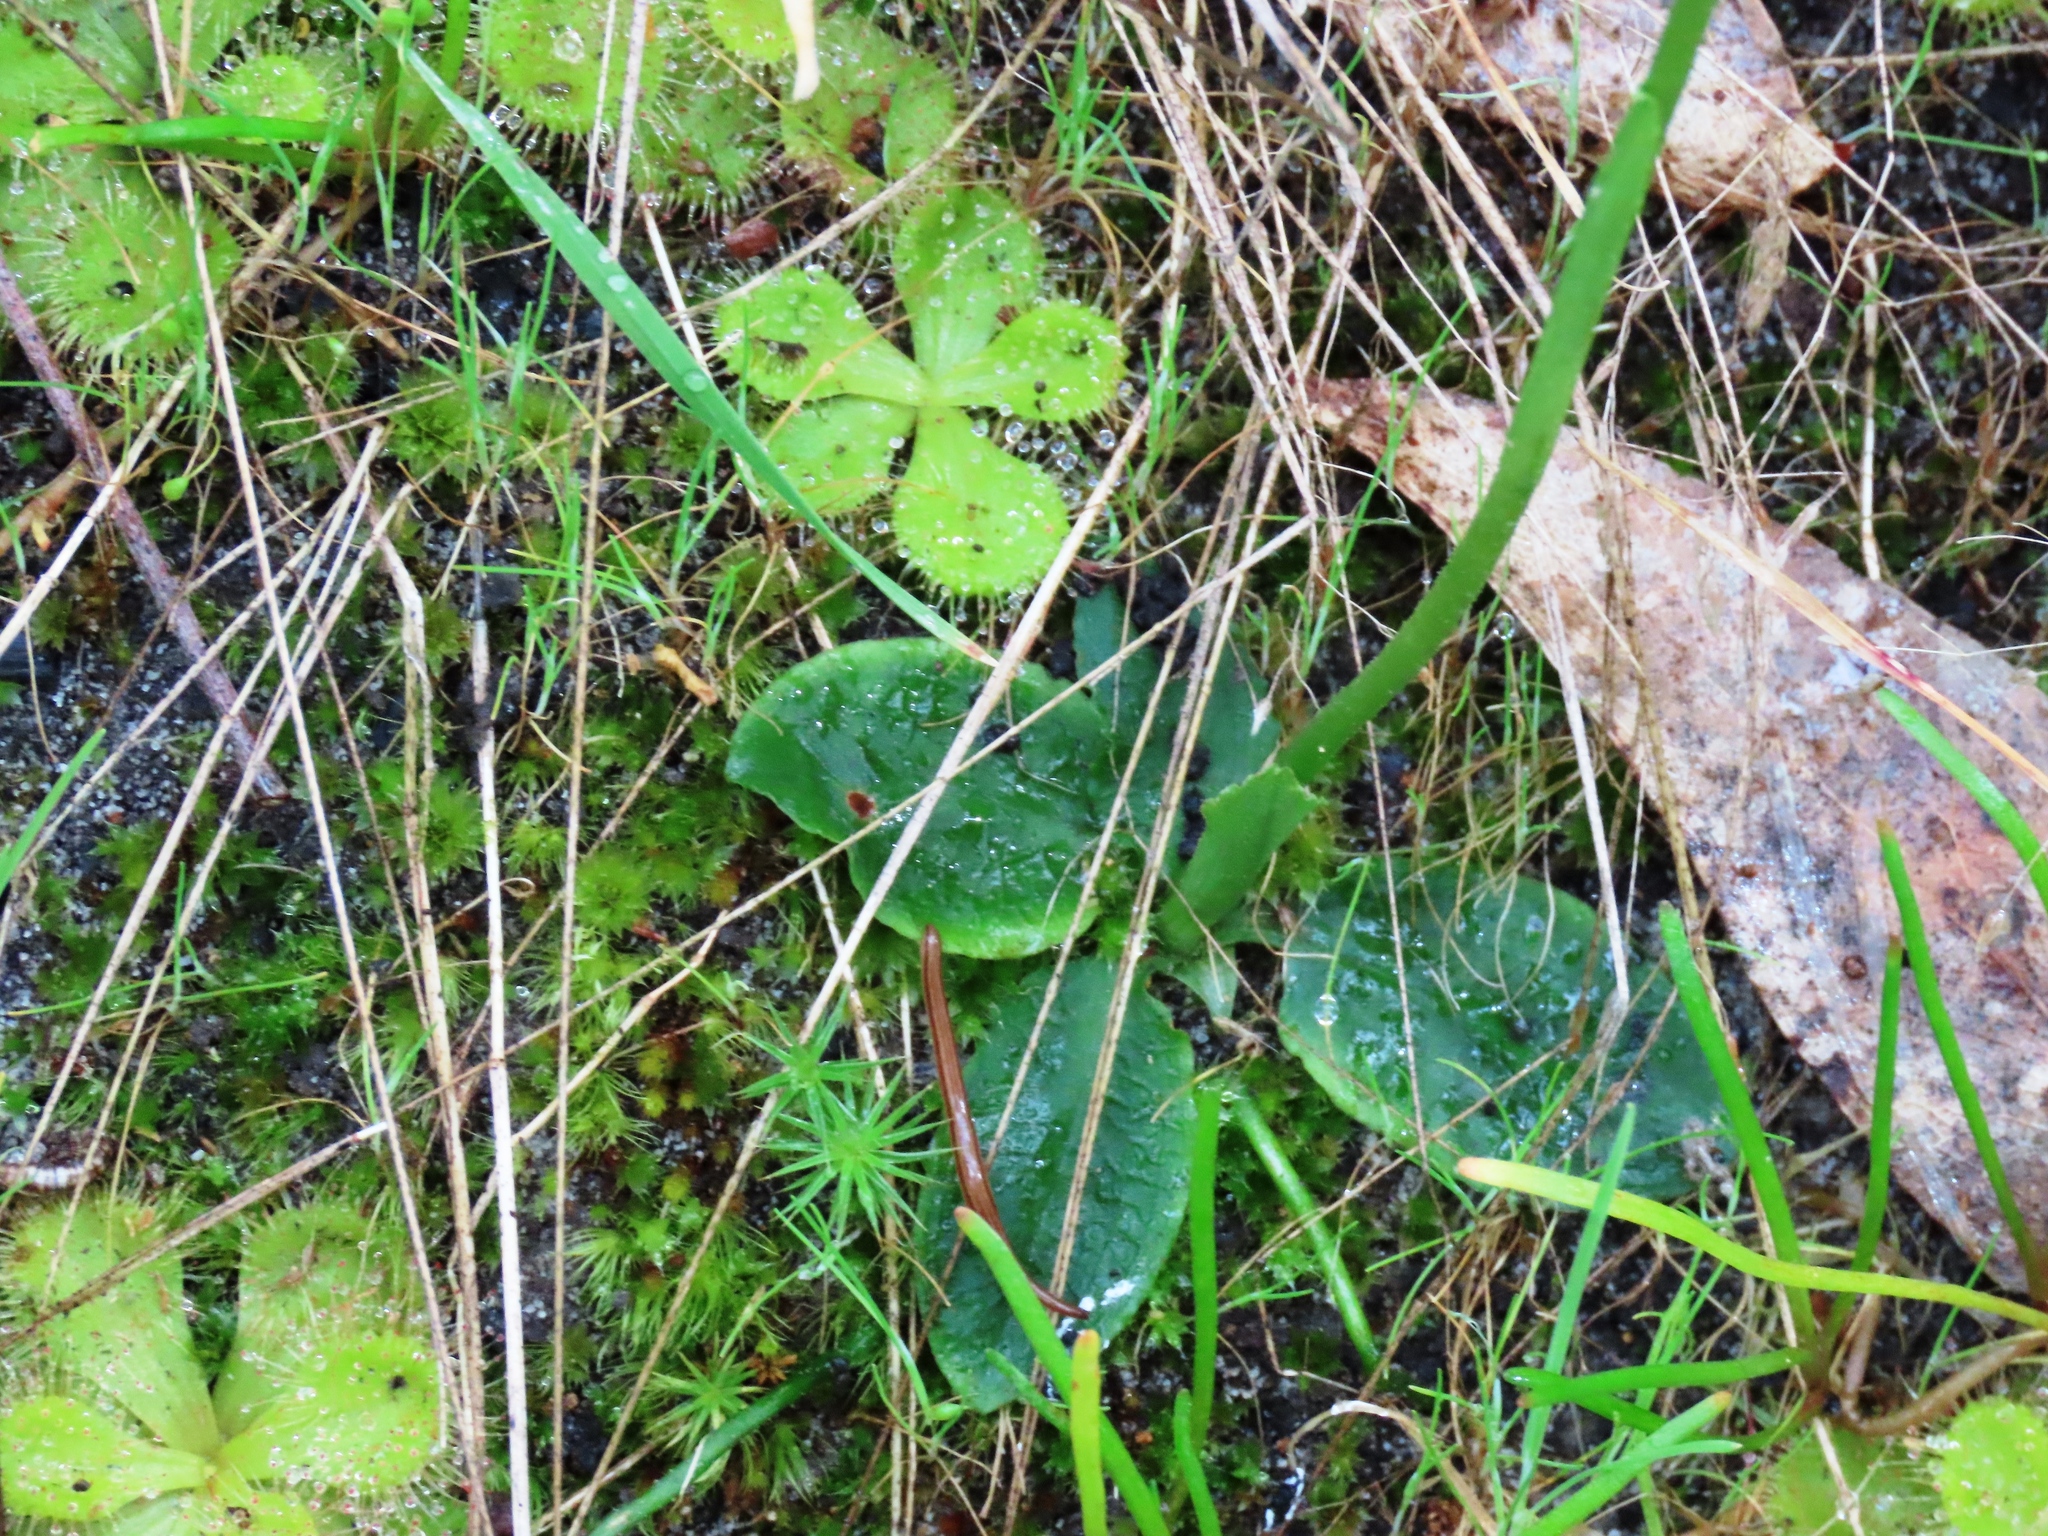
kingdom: Plantae
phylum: Tracheophyta
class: Liliopsida
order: Asparagales
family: Orchidaceae
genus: Pterostylis
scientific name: Pterostylis curta
